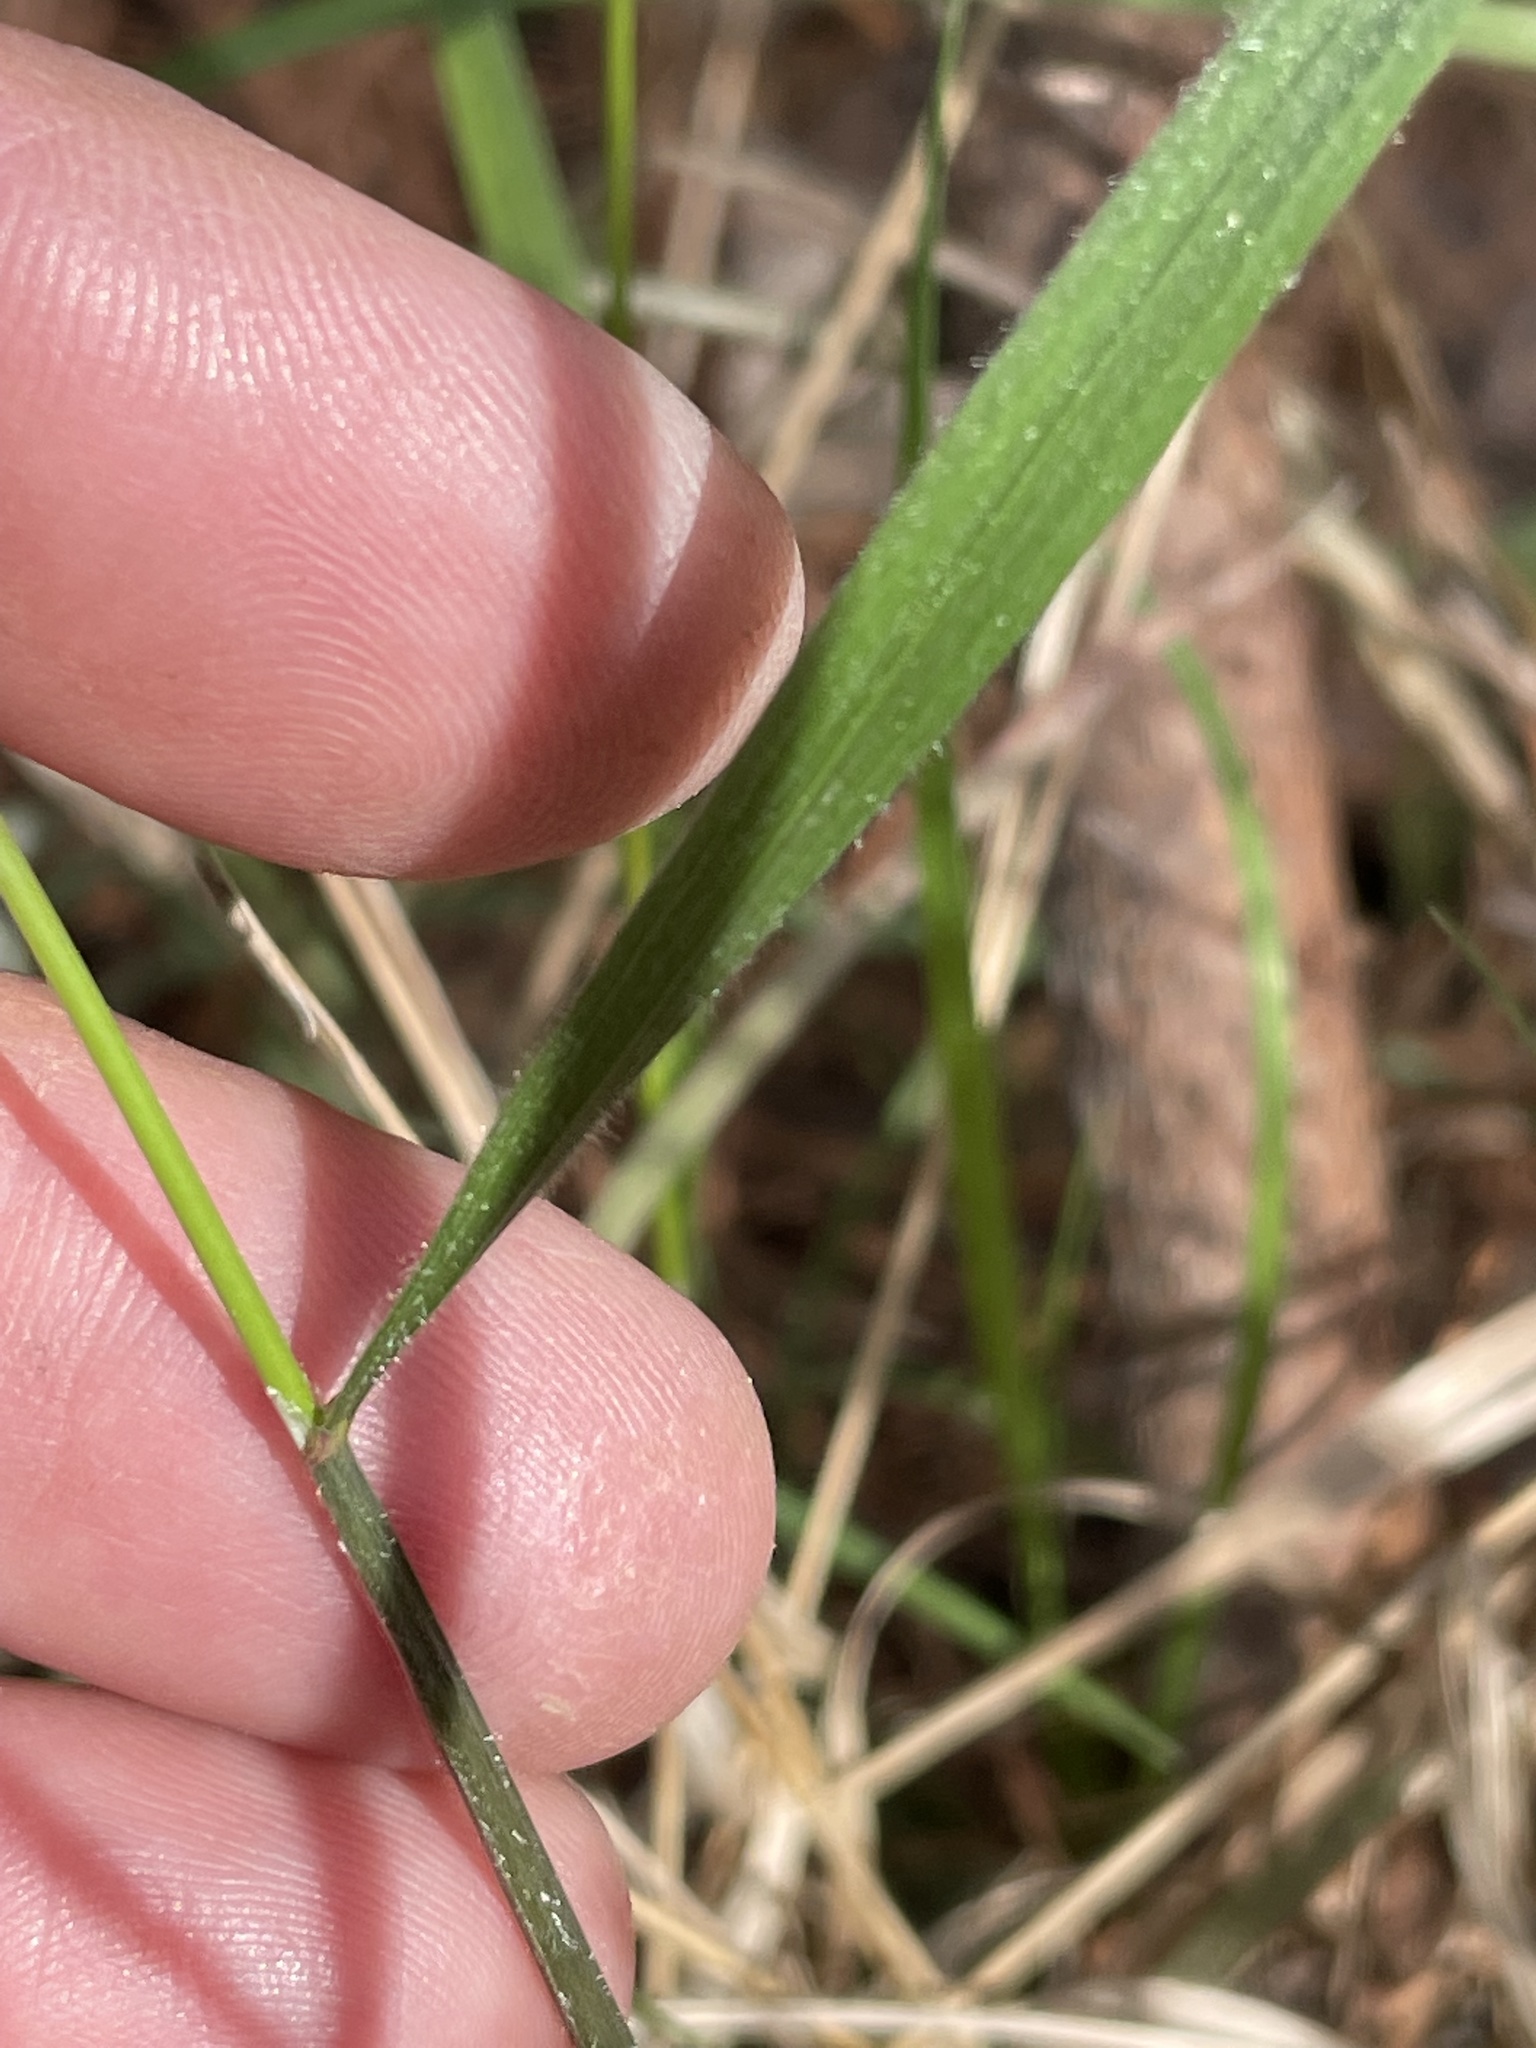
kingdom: Plantae
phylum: Tracheophyta
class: Liliopsida
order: Poales
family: Poaceae
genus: Melica
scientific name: Melica mutica
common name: Two-flower melic
